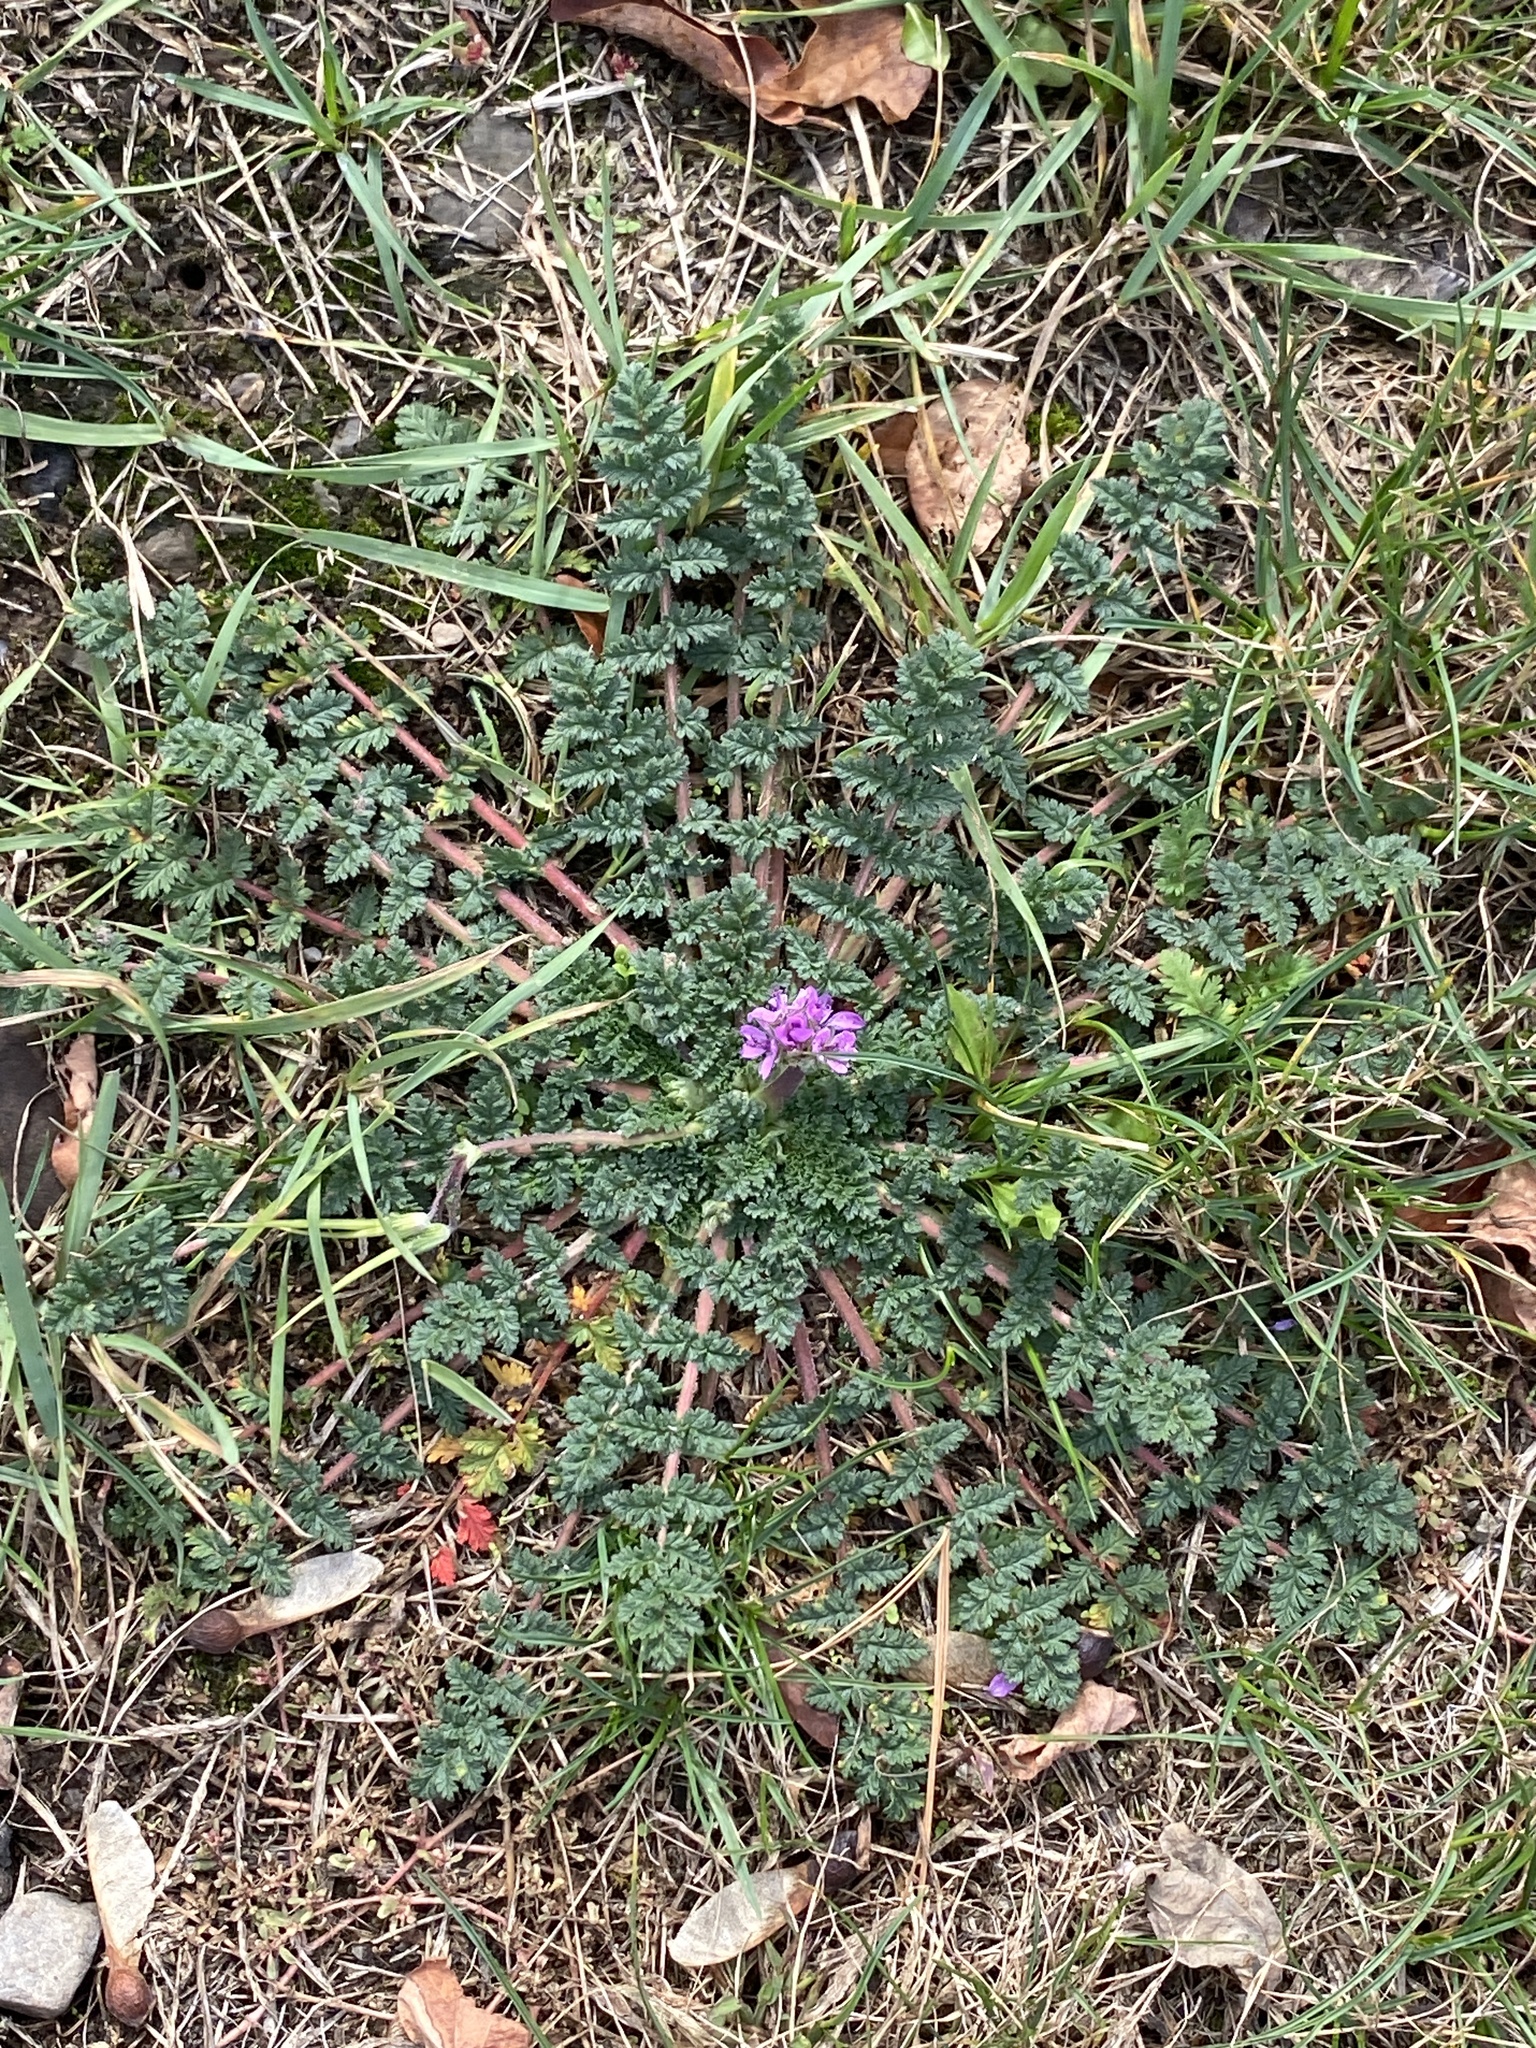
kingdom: Plantae
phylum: Tracheophyta
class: Magnoliopsida
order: Geraniales
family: Geraniaceae
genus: Erodium
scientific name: Erodium cicutarium
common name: Common stork's-bill
